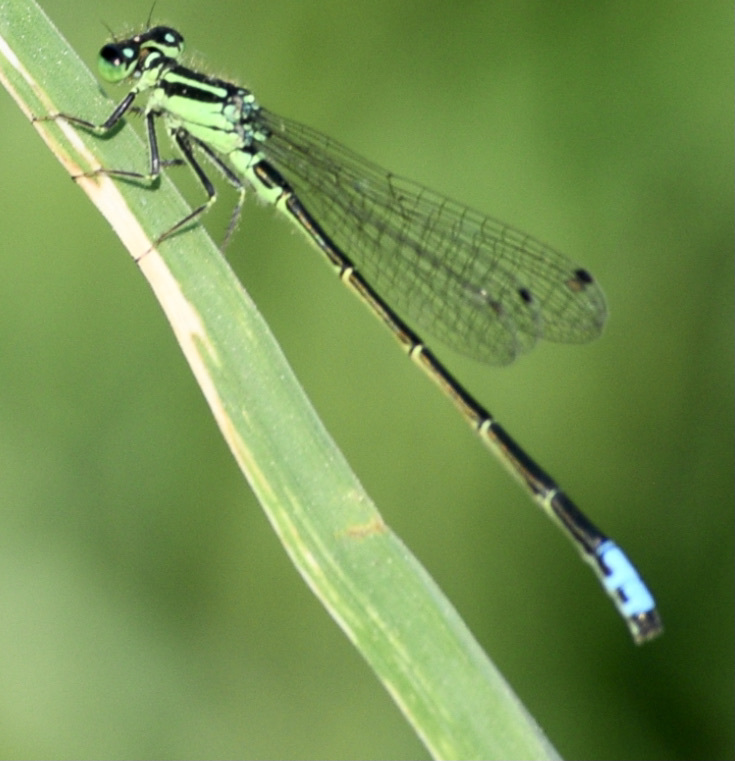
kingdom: Animalia
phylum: Arthropoda
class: Insecta
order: Odonata
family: Coenagrionidae
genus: Ischnura
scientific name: Ischnura verticalis
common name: Eastern forktail
